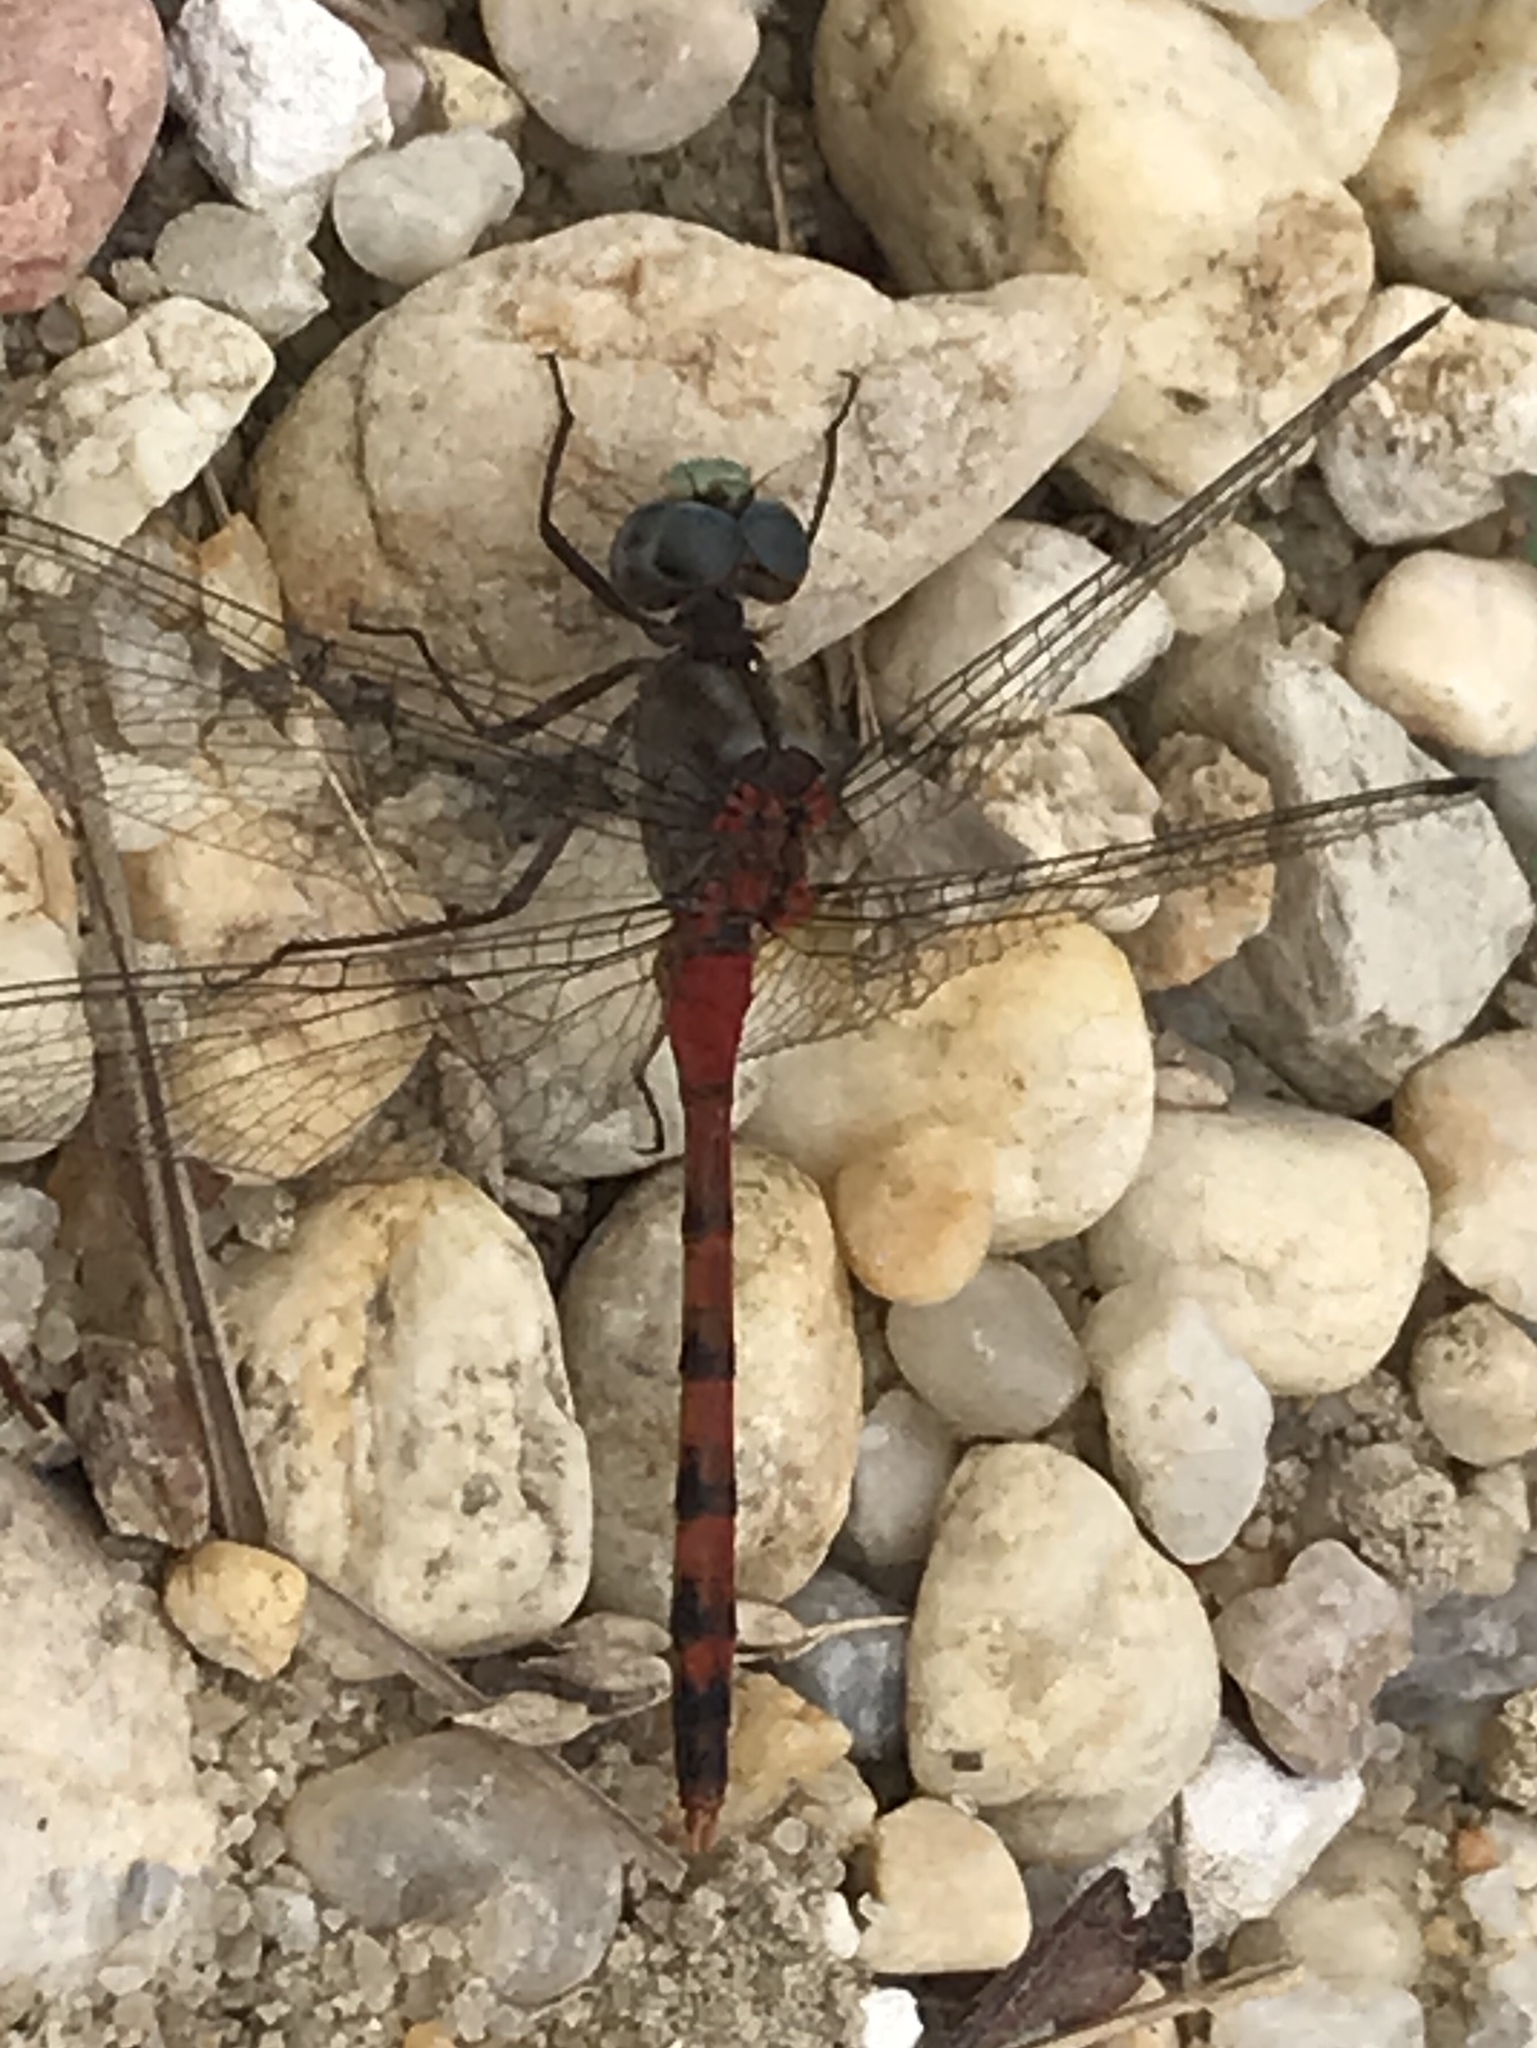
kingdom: Animalia
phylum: Arthropoda
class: Insecta
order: Odonata
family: Libellulidae
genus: Sympetrum
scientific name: Sympetrum ambiguum
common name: Blue-faced meadowhawk
